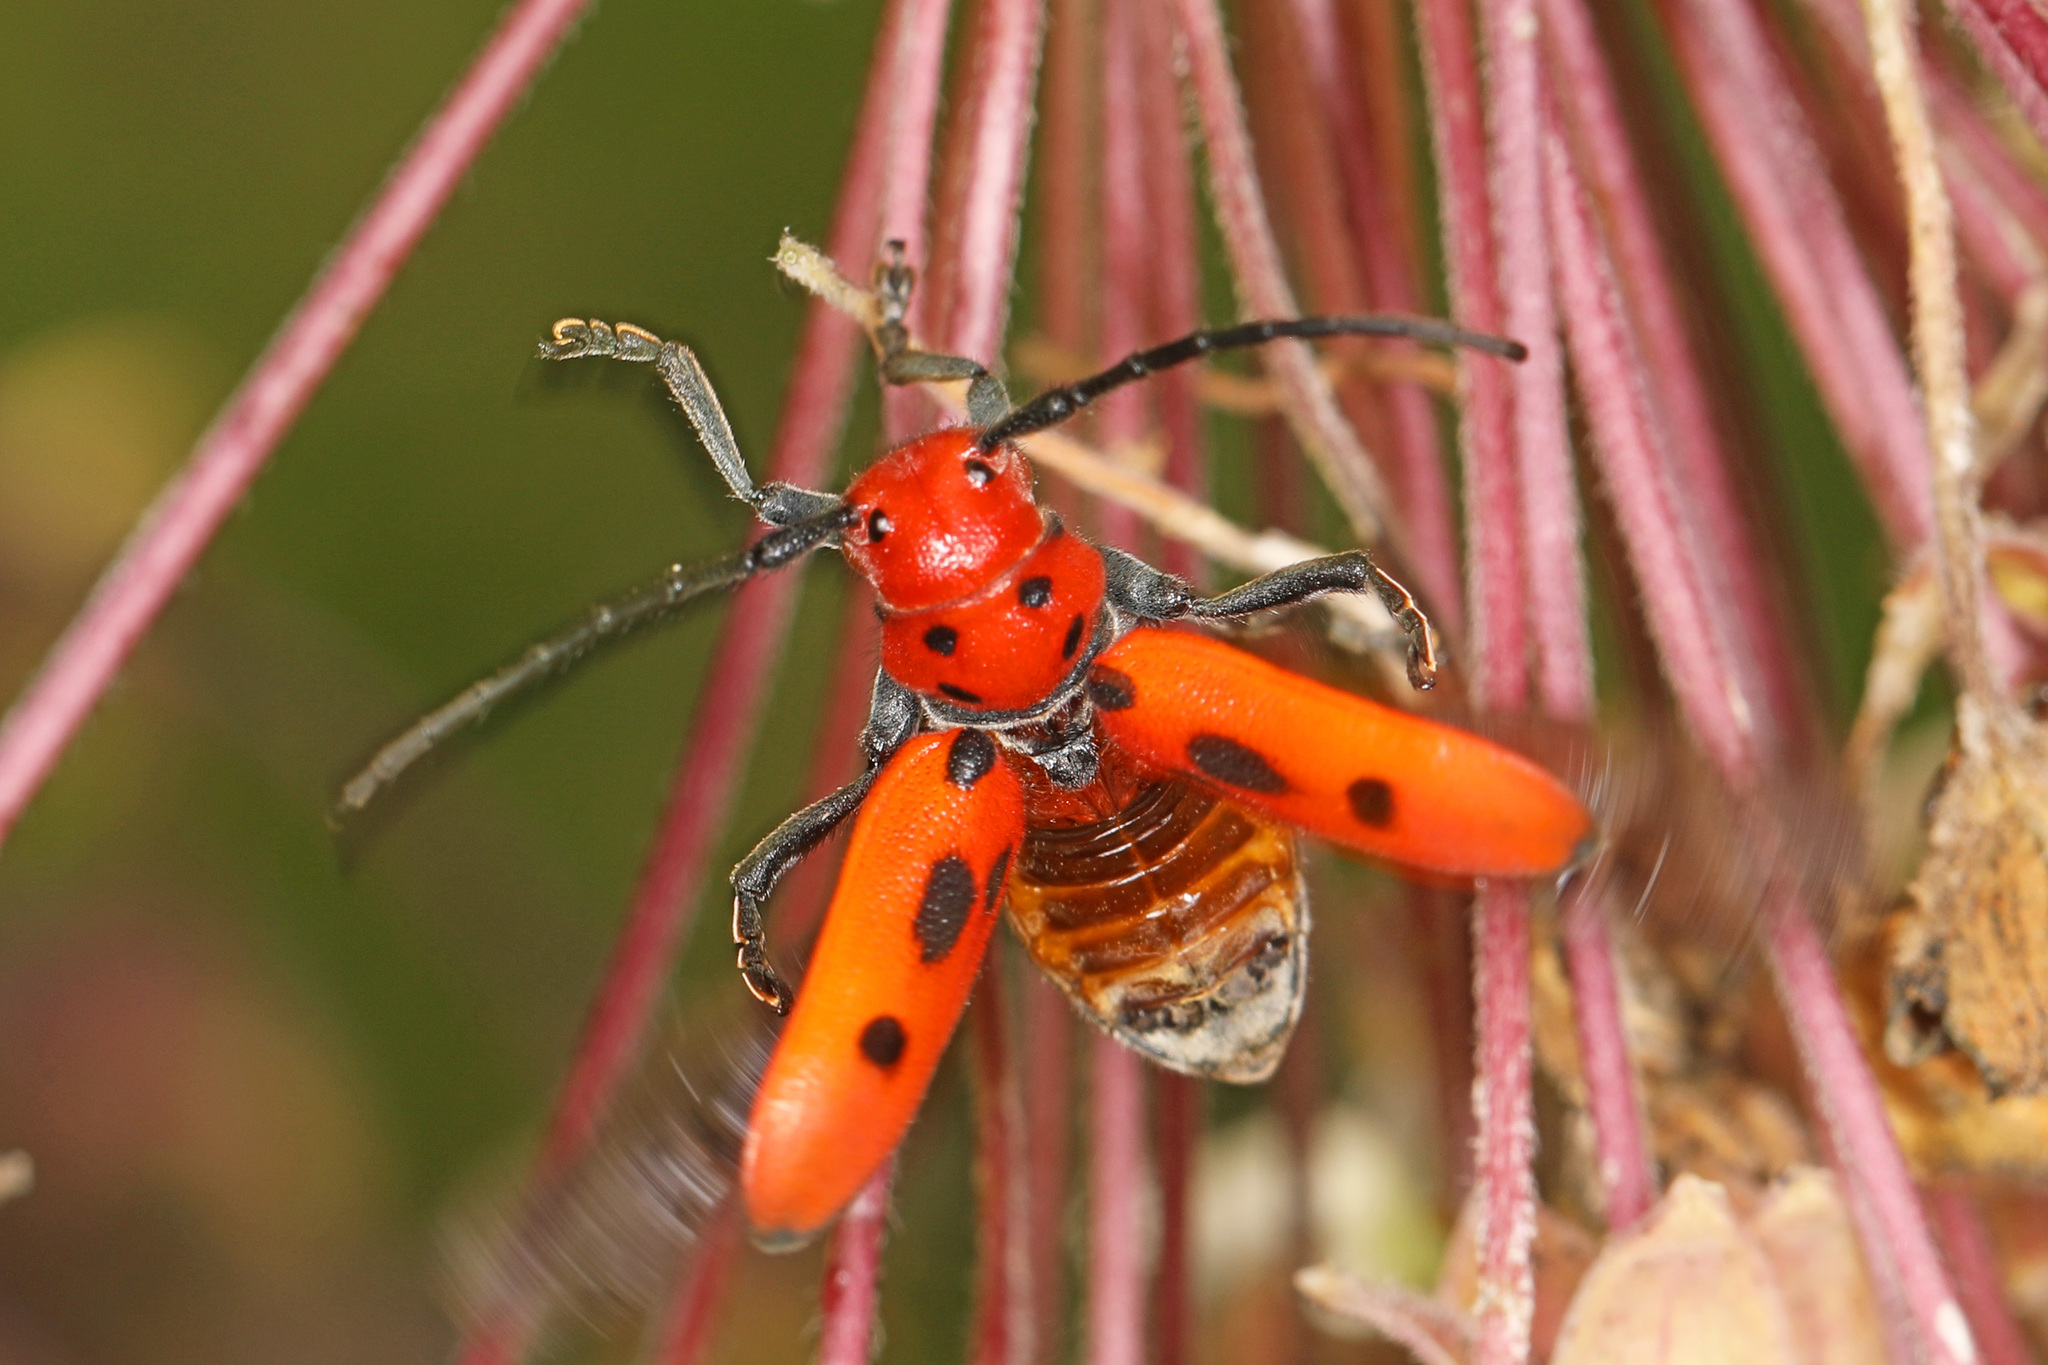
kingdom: Animalia
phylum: Arthropoda
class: Insecta
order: Coleoptera
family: Cerambycidae
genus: Tetraopes
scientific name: Tetraopes tetrophthalmus
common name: Red milkweed beetle
